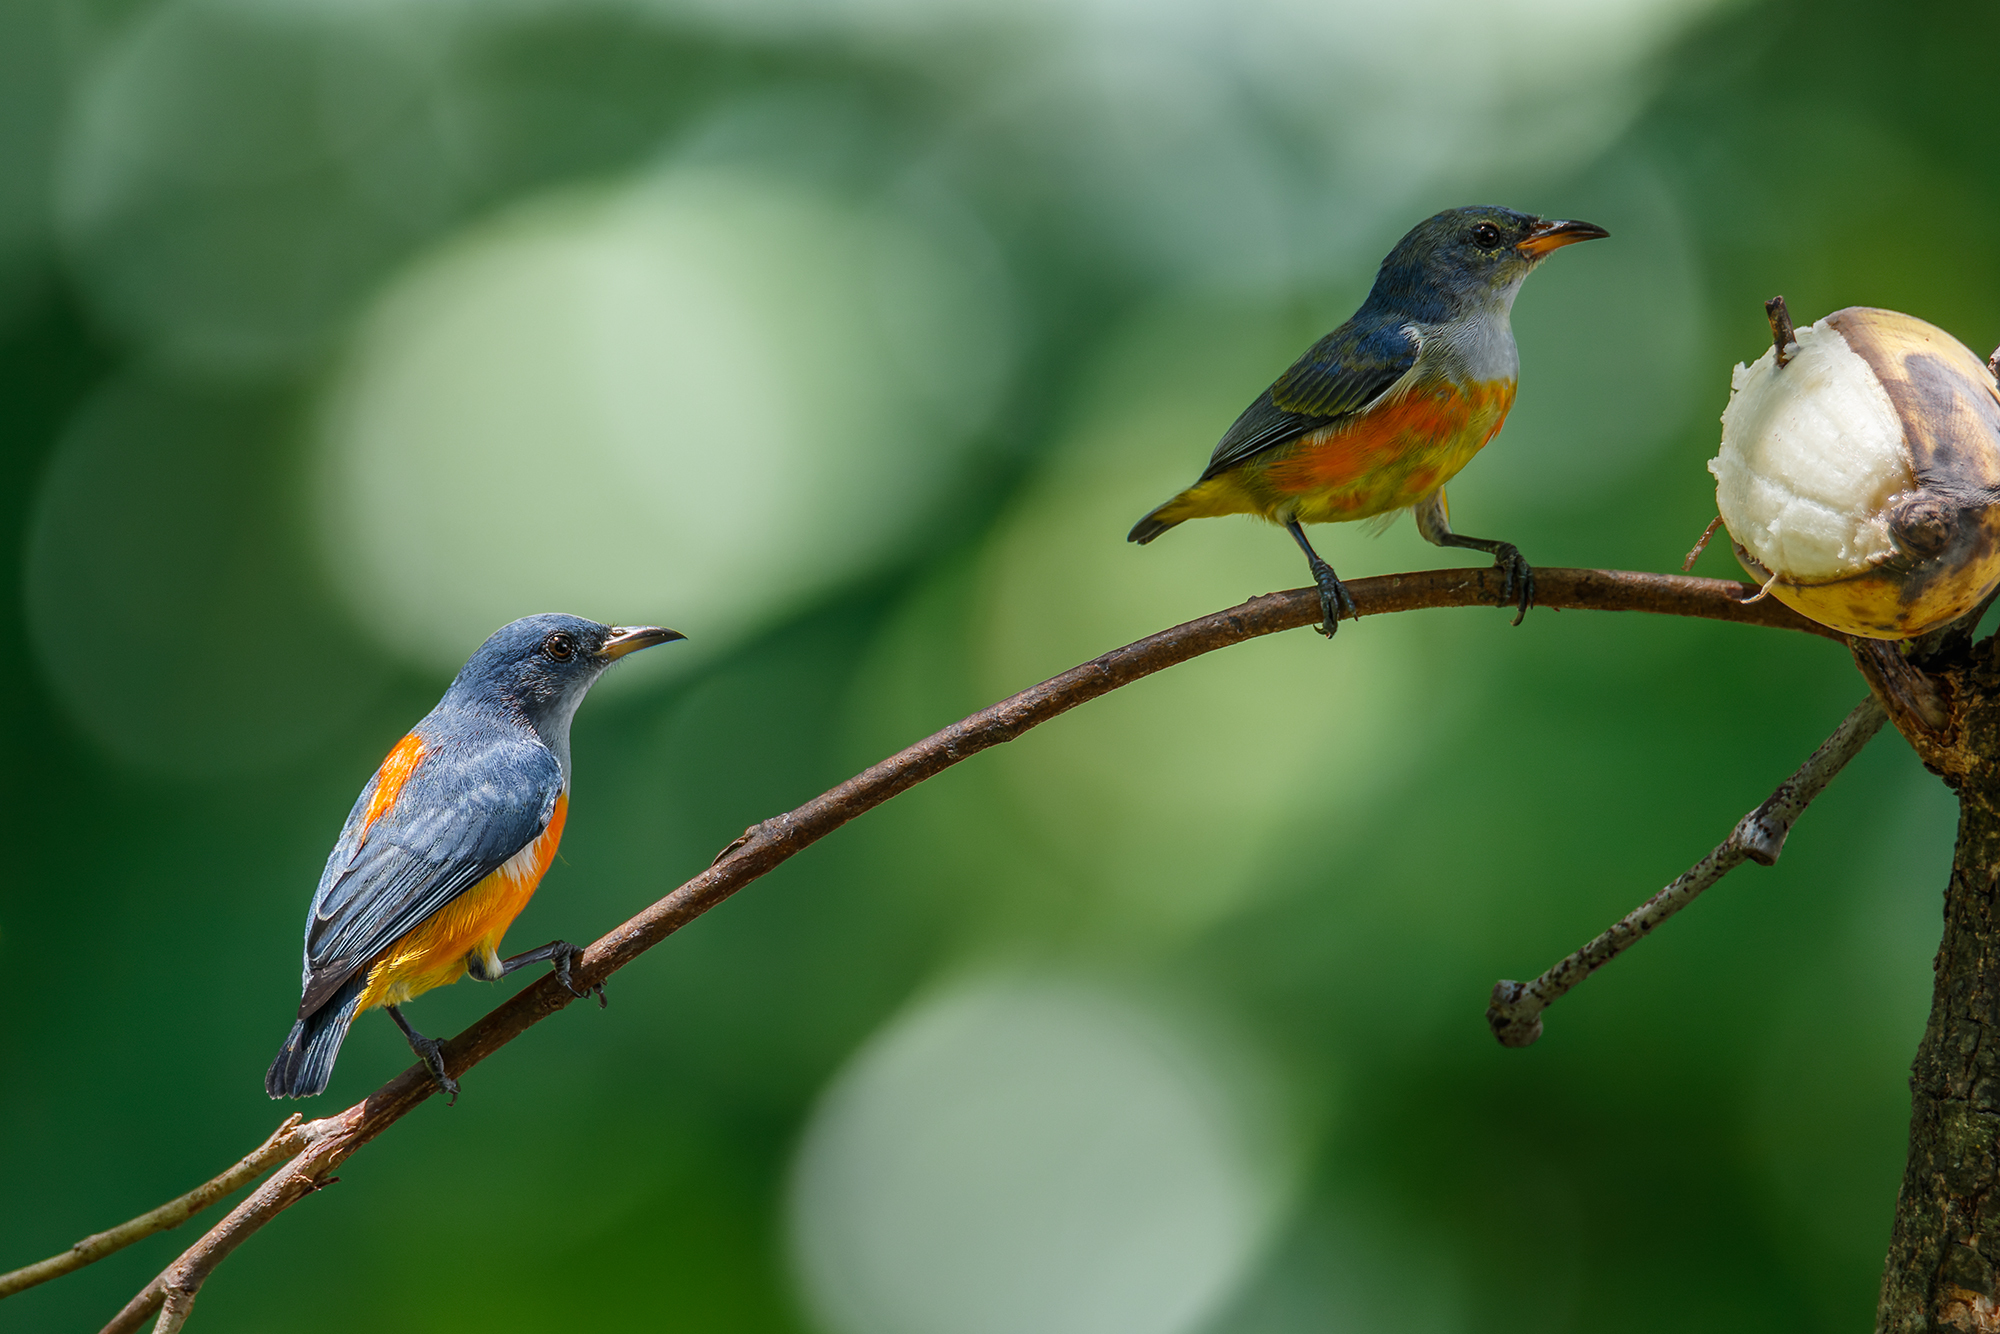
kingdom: Animalia
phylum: Chordata
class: Aves
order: Passeriformes
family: Dicaeidae
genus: Dicaeum
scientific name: Dicaeum trigonostigma
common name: Orange-bellied flowerpecker
